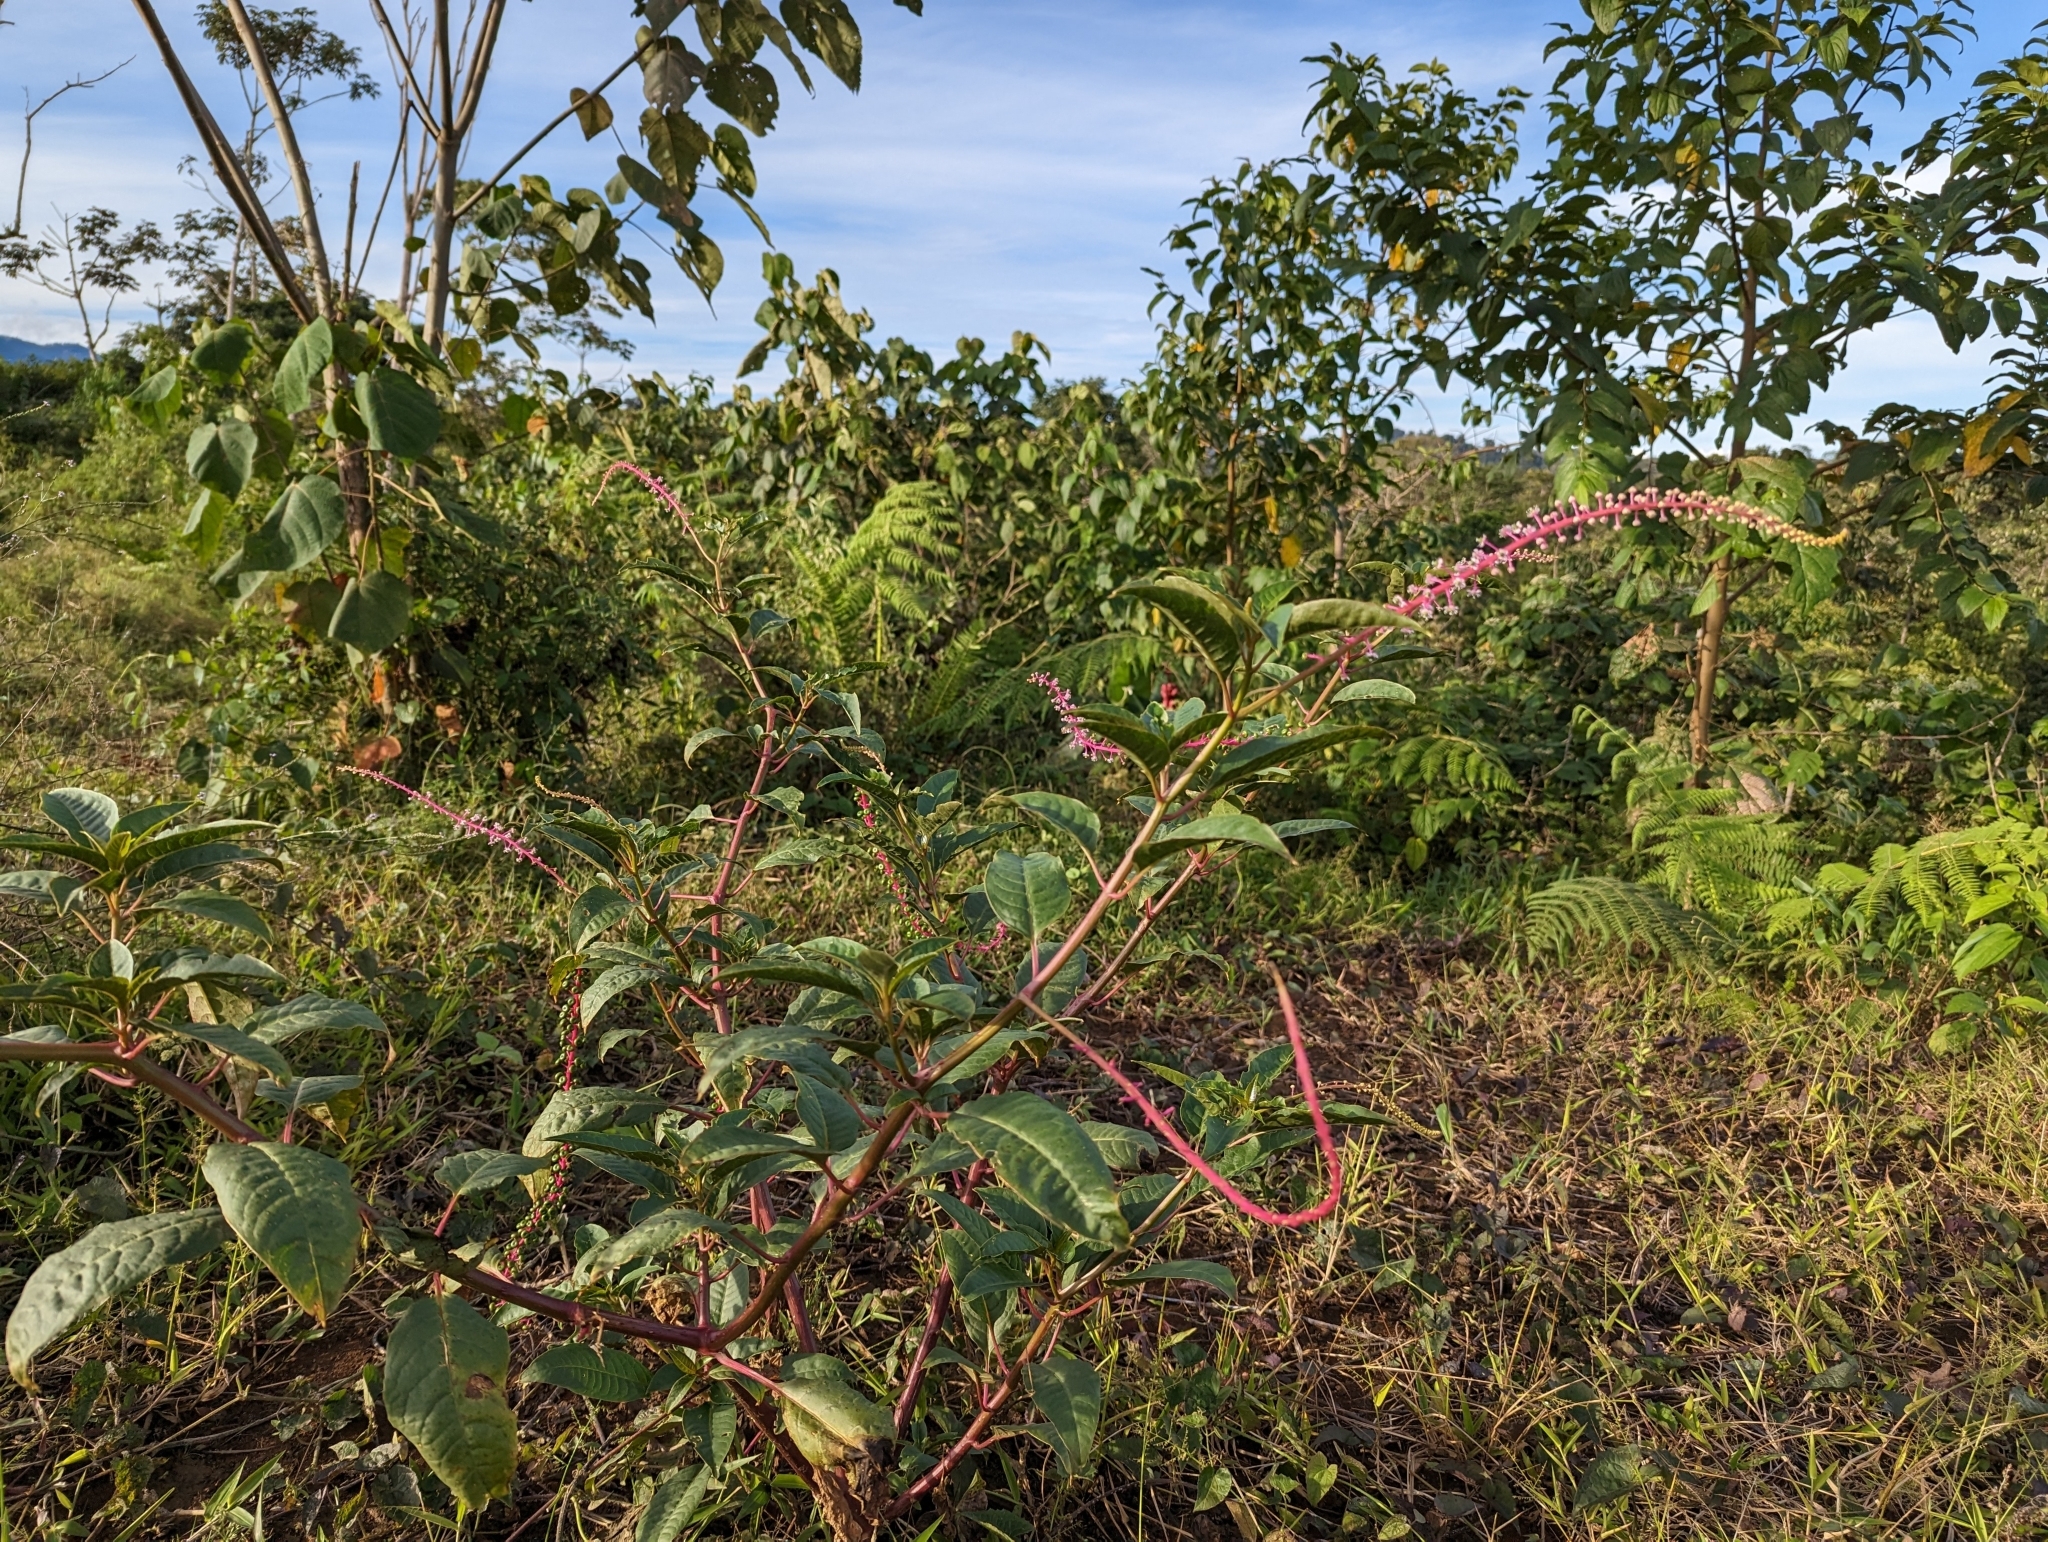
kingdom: Plantae
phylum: Tracheophyta
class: Magnoliopsida
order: Caryophyllales
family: Phytolaccaceae
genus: Phytolacca
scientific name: Phytolacca rivinoides
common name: Venezuelan pokeweed
